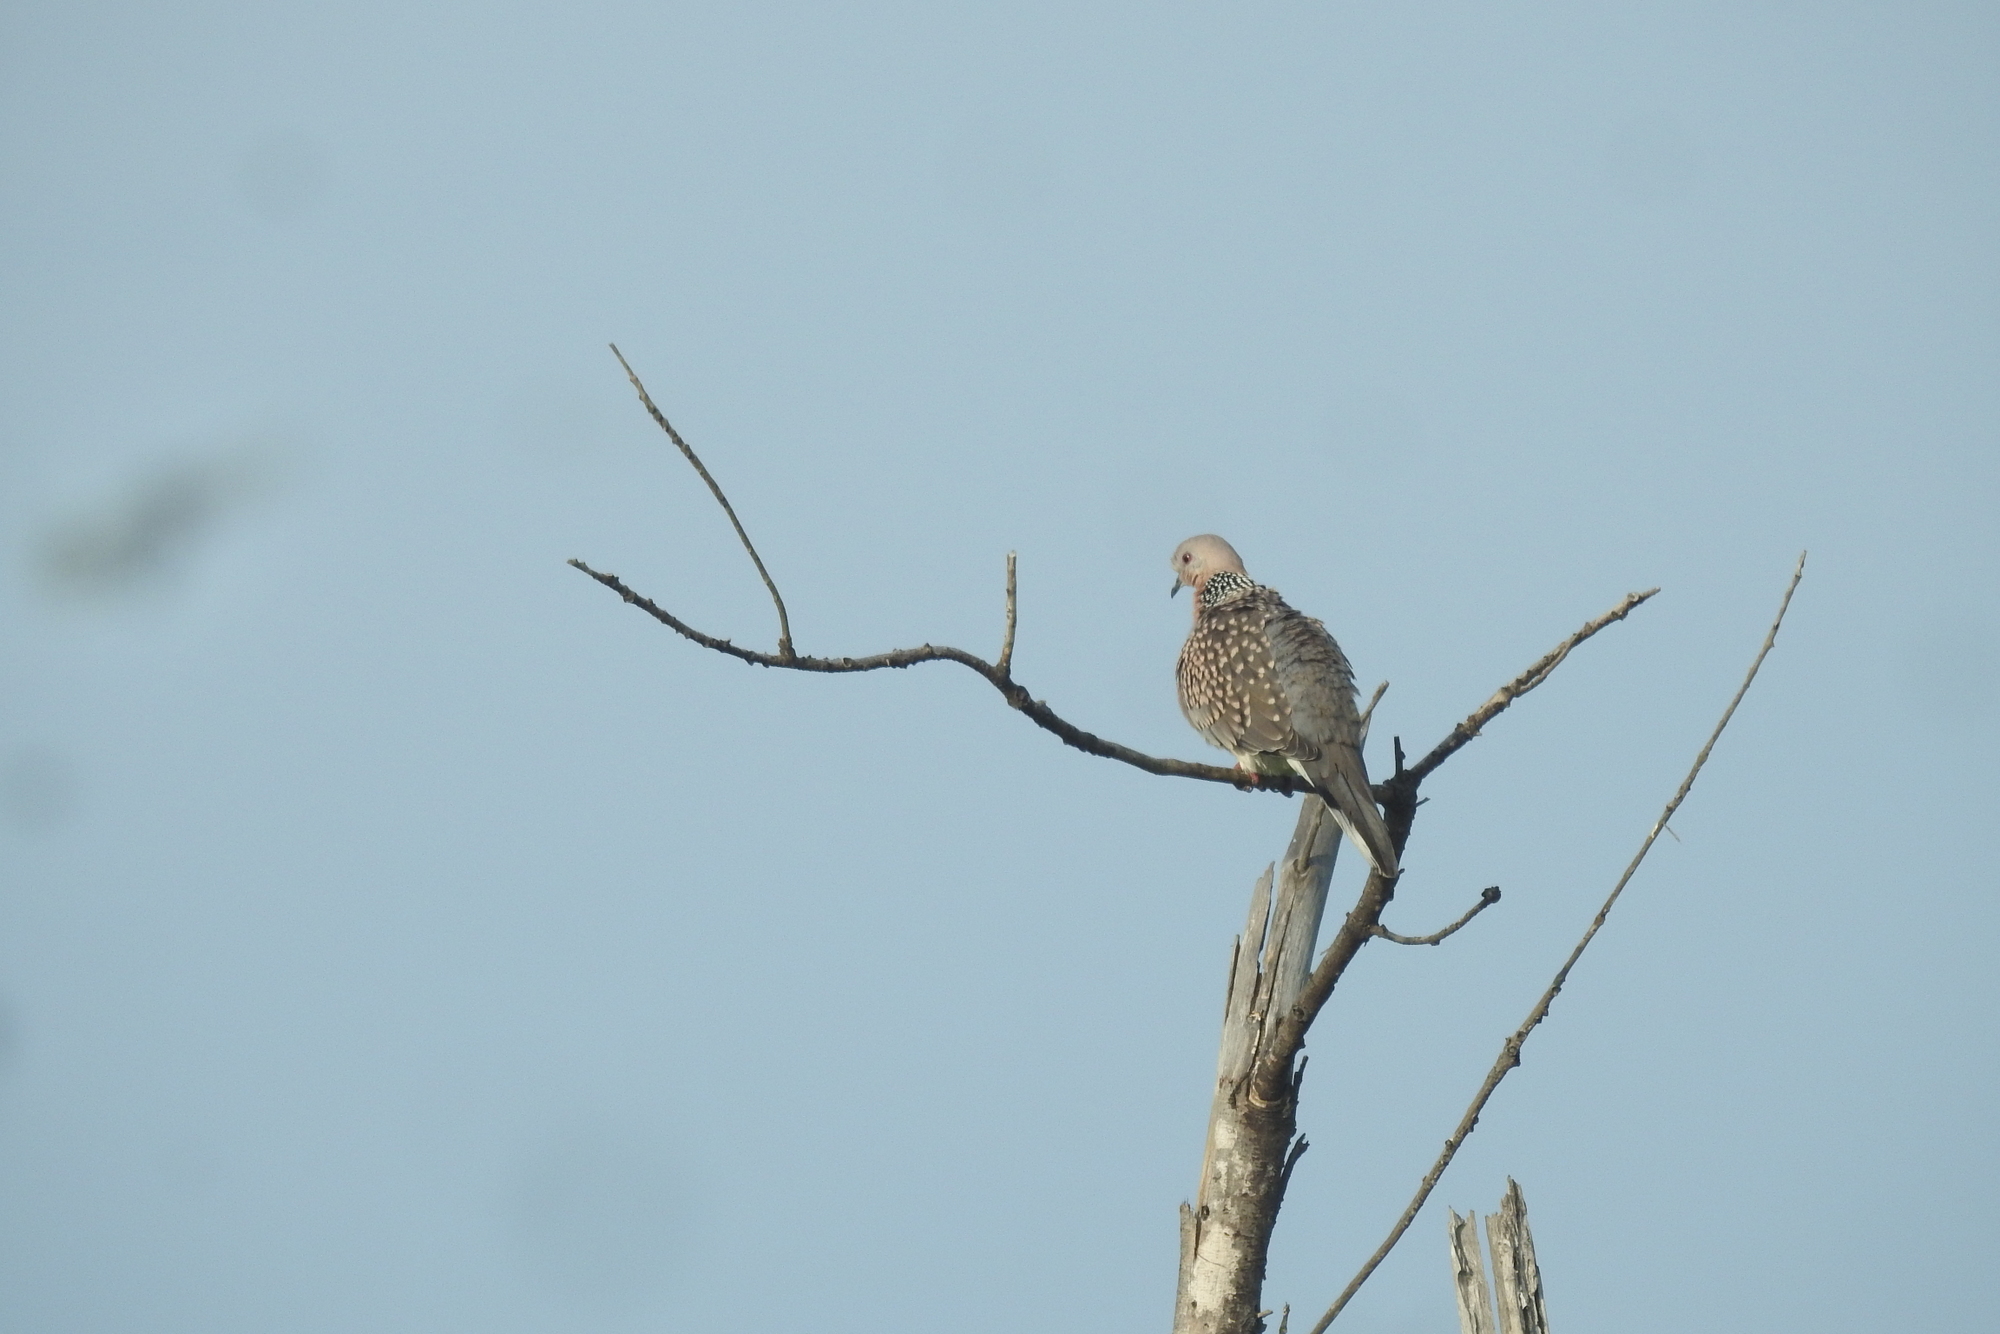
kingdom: Animalia
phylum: Chordata
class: Aves
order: Columbiformes
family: Columbidae
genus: Spilopelia
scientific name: Spilopelia chinensis
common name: Spotted dove
